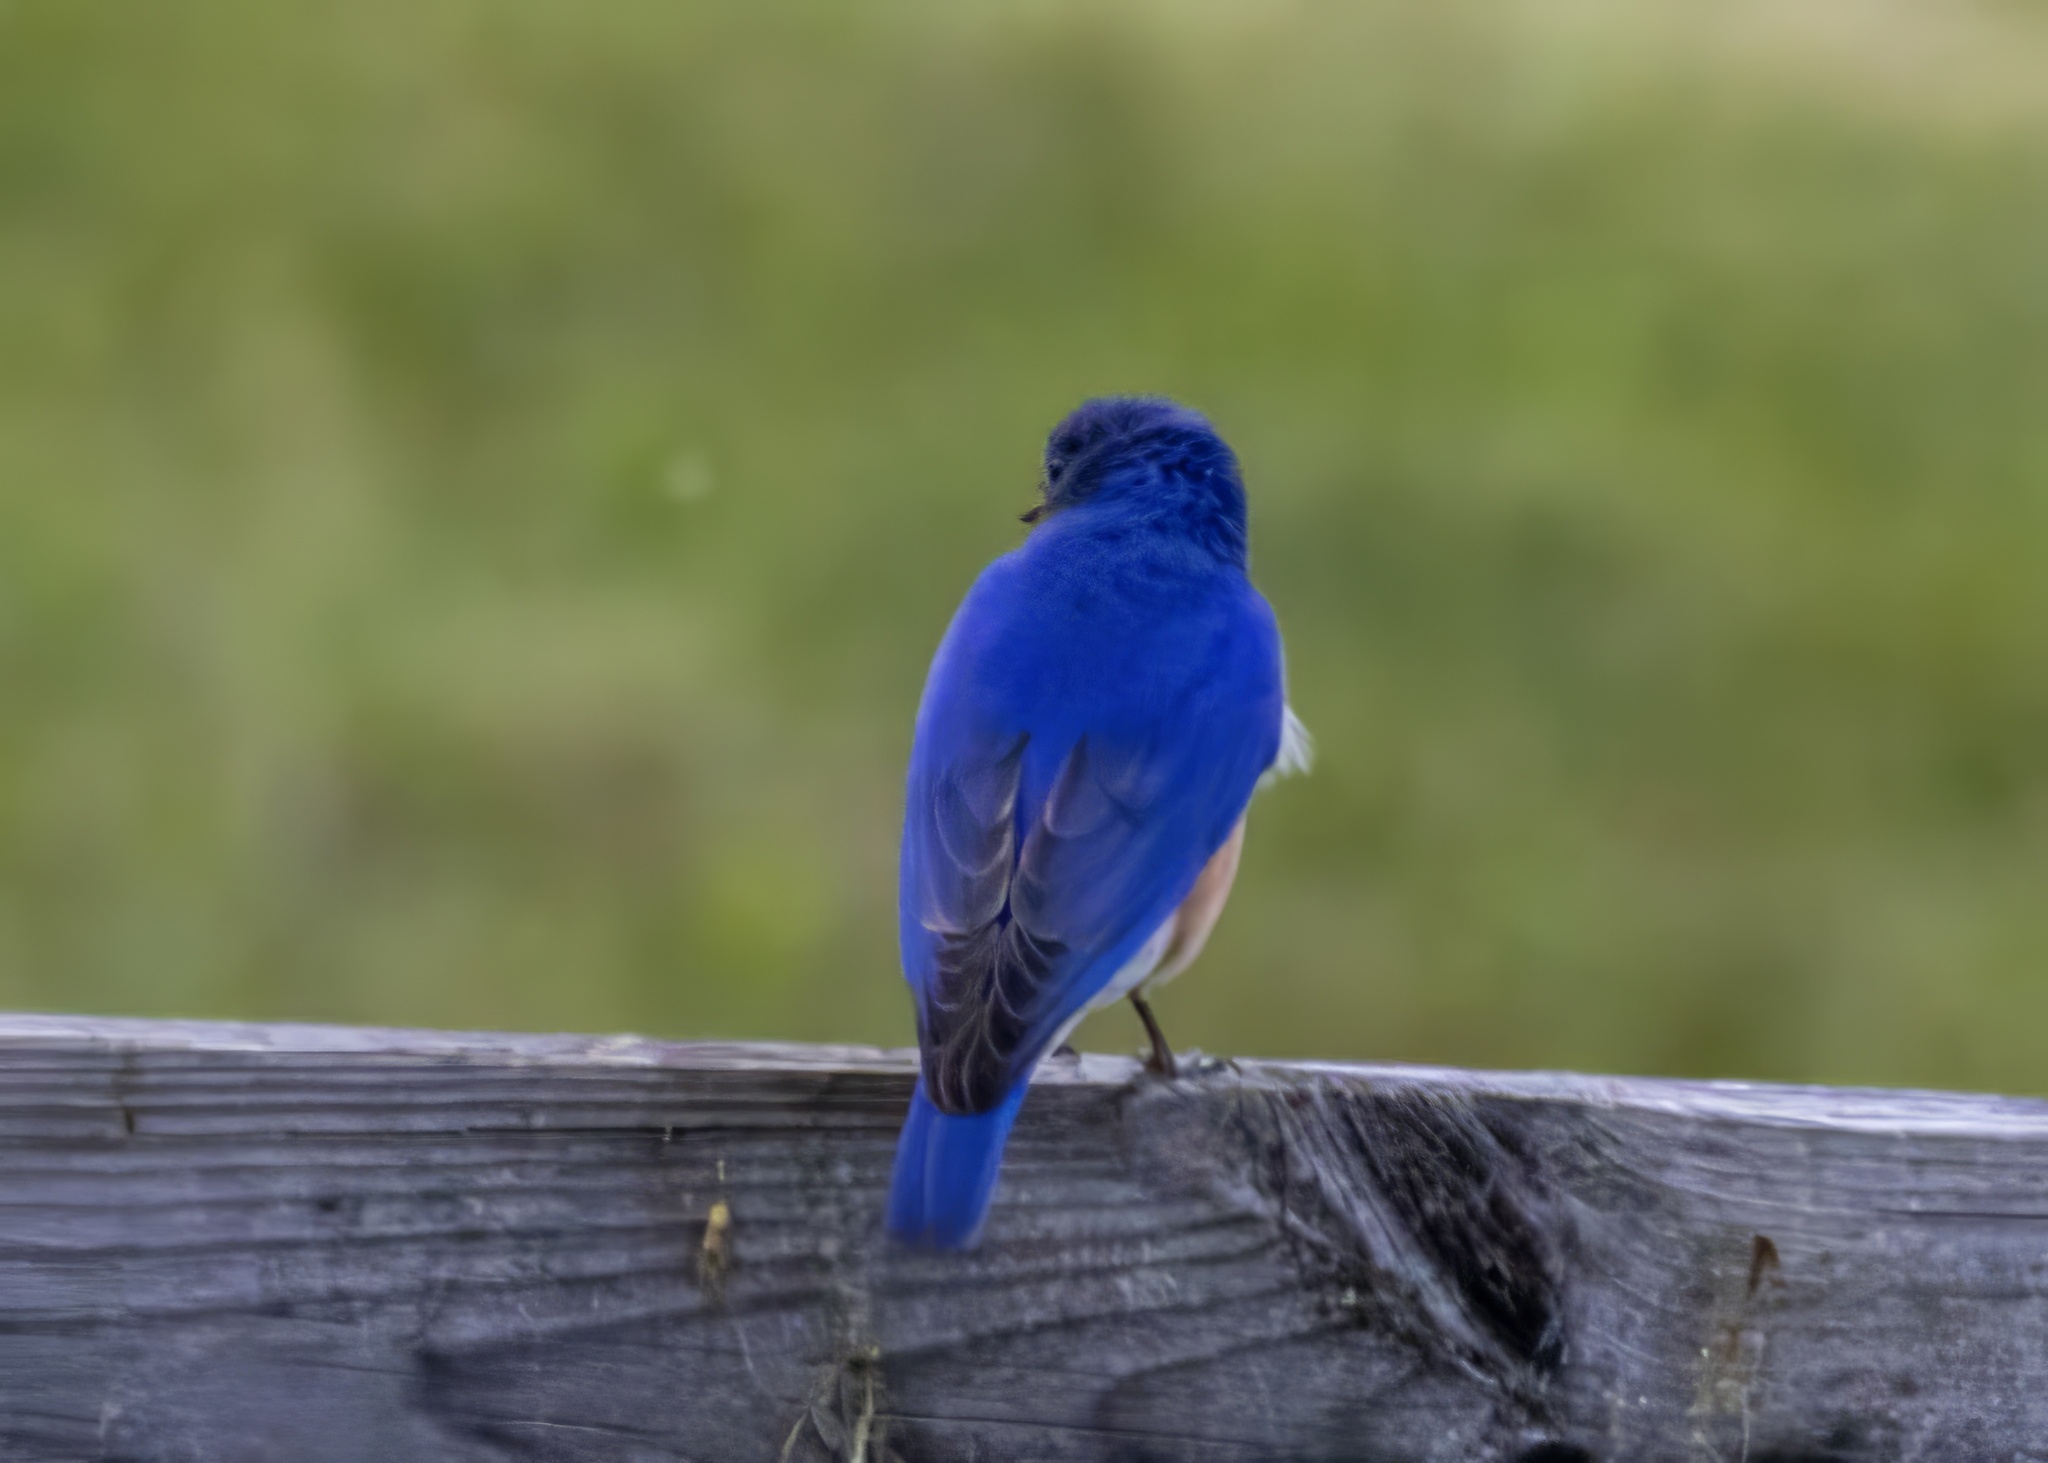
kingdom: Animalia
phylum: Chordata
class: Aves
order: Passeriformes
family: Turdidae
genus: Sialia
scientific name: Sialia sialis
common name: Eastern bluebird
